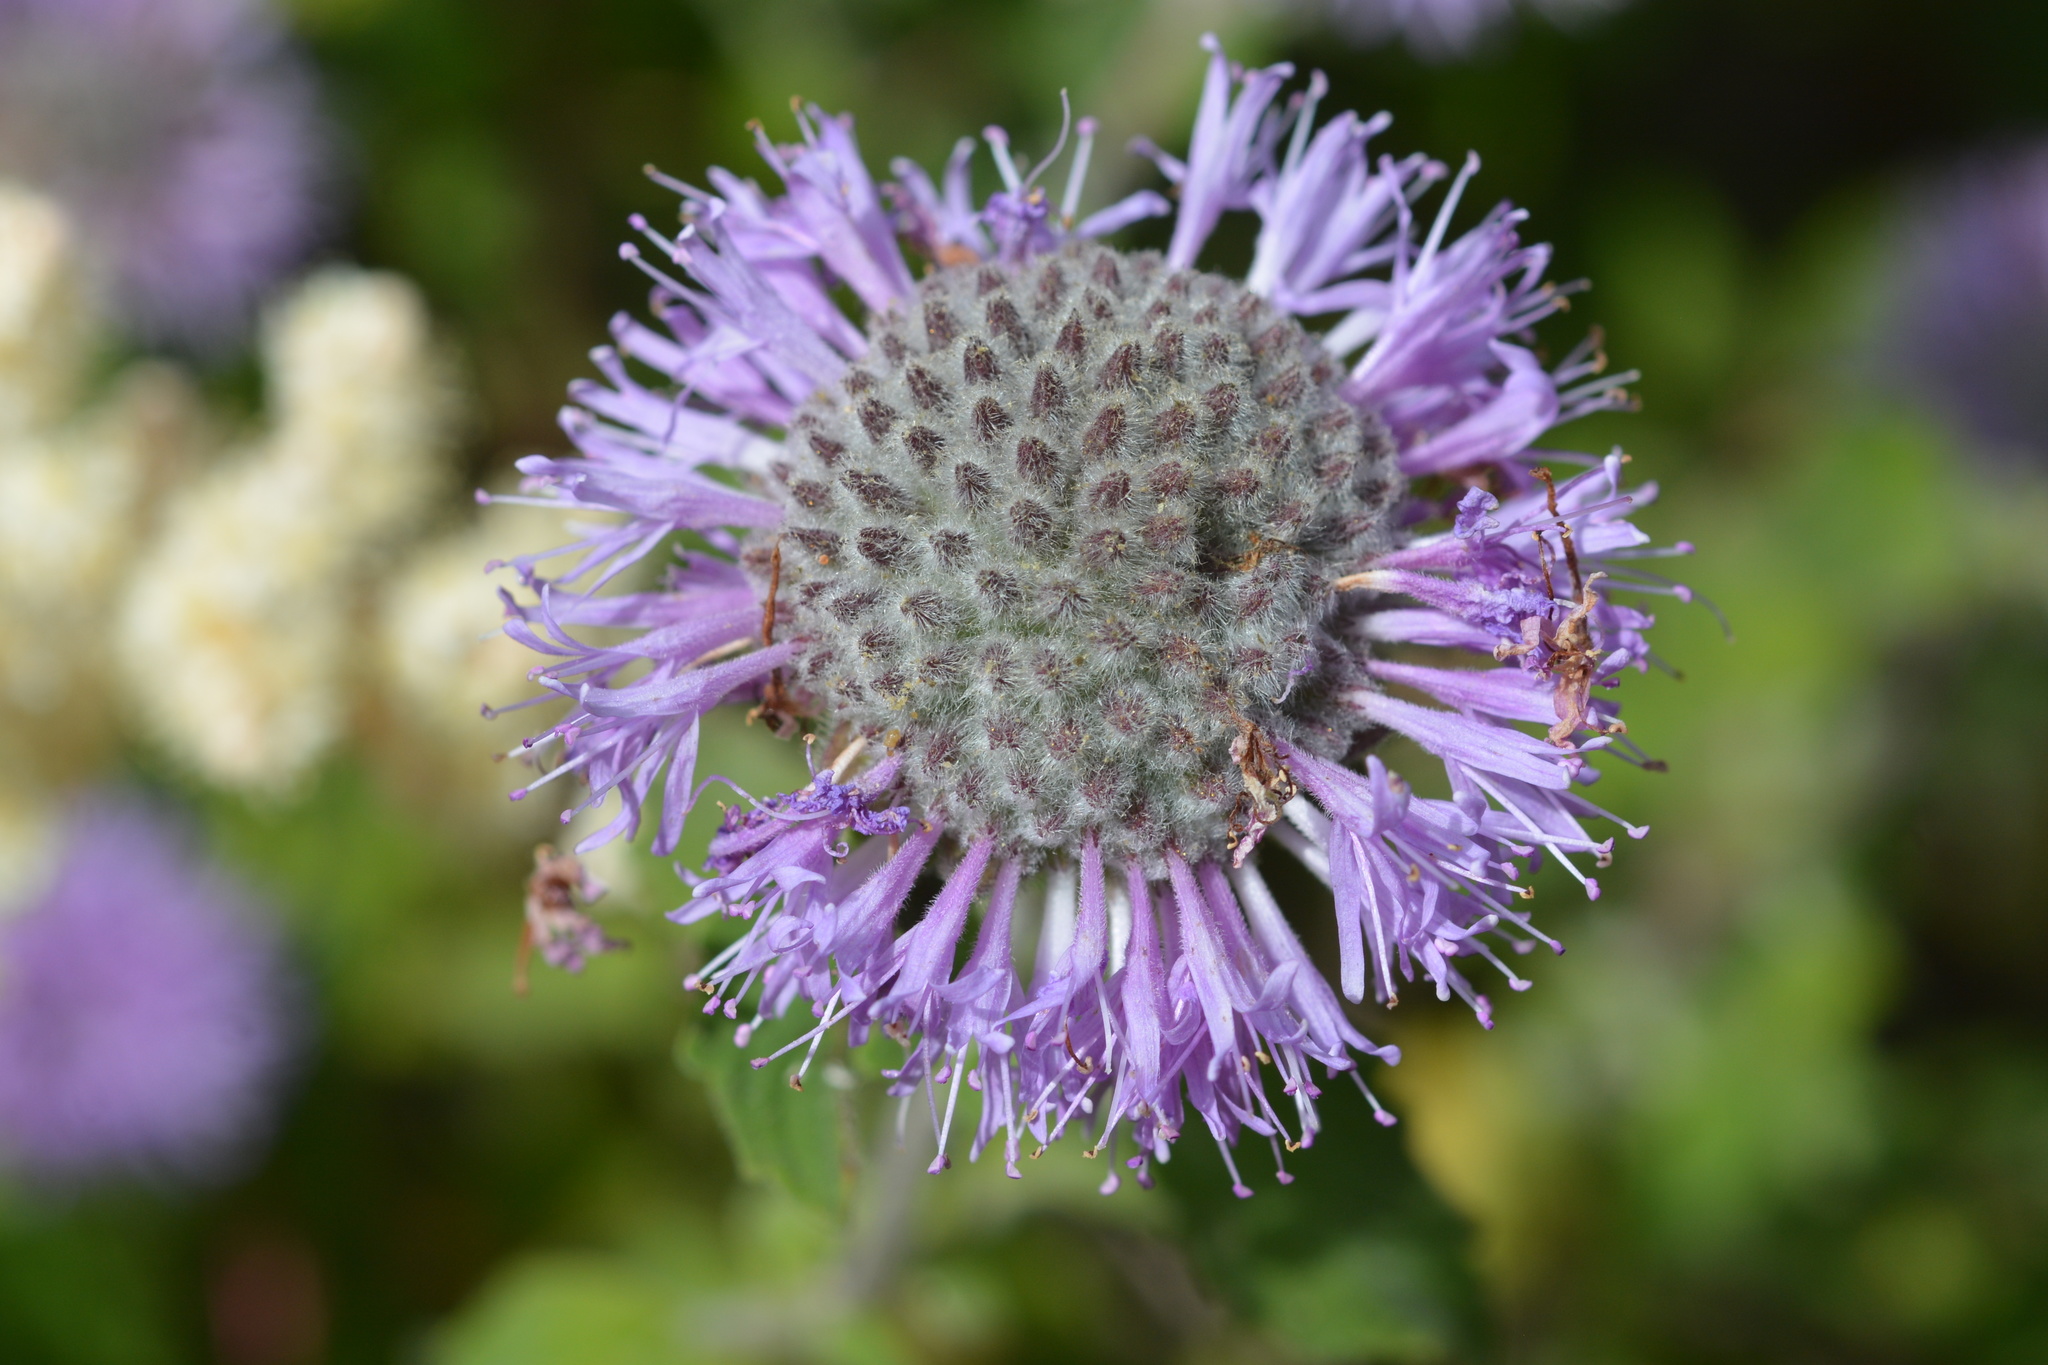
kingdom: Plantae
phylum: Tracheophyta
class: Magnoliopsida
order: Lamiales
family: Lamiaceae
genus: Monardella
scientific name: Monardella odoratissima
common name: Pacific monardella
